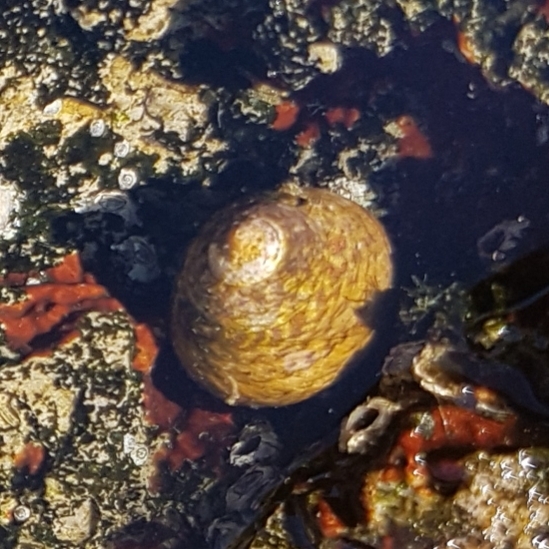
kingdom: Animalia
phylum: Mollusca
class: Gastropoda
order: Trochida
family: Trochidae
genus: Phorcus
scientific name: Phorcus lineatus
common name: Toothed top shell
